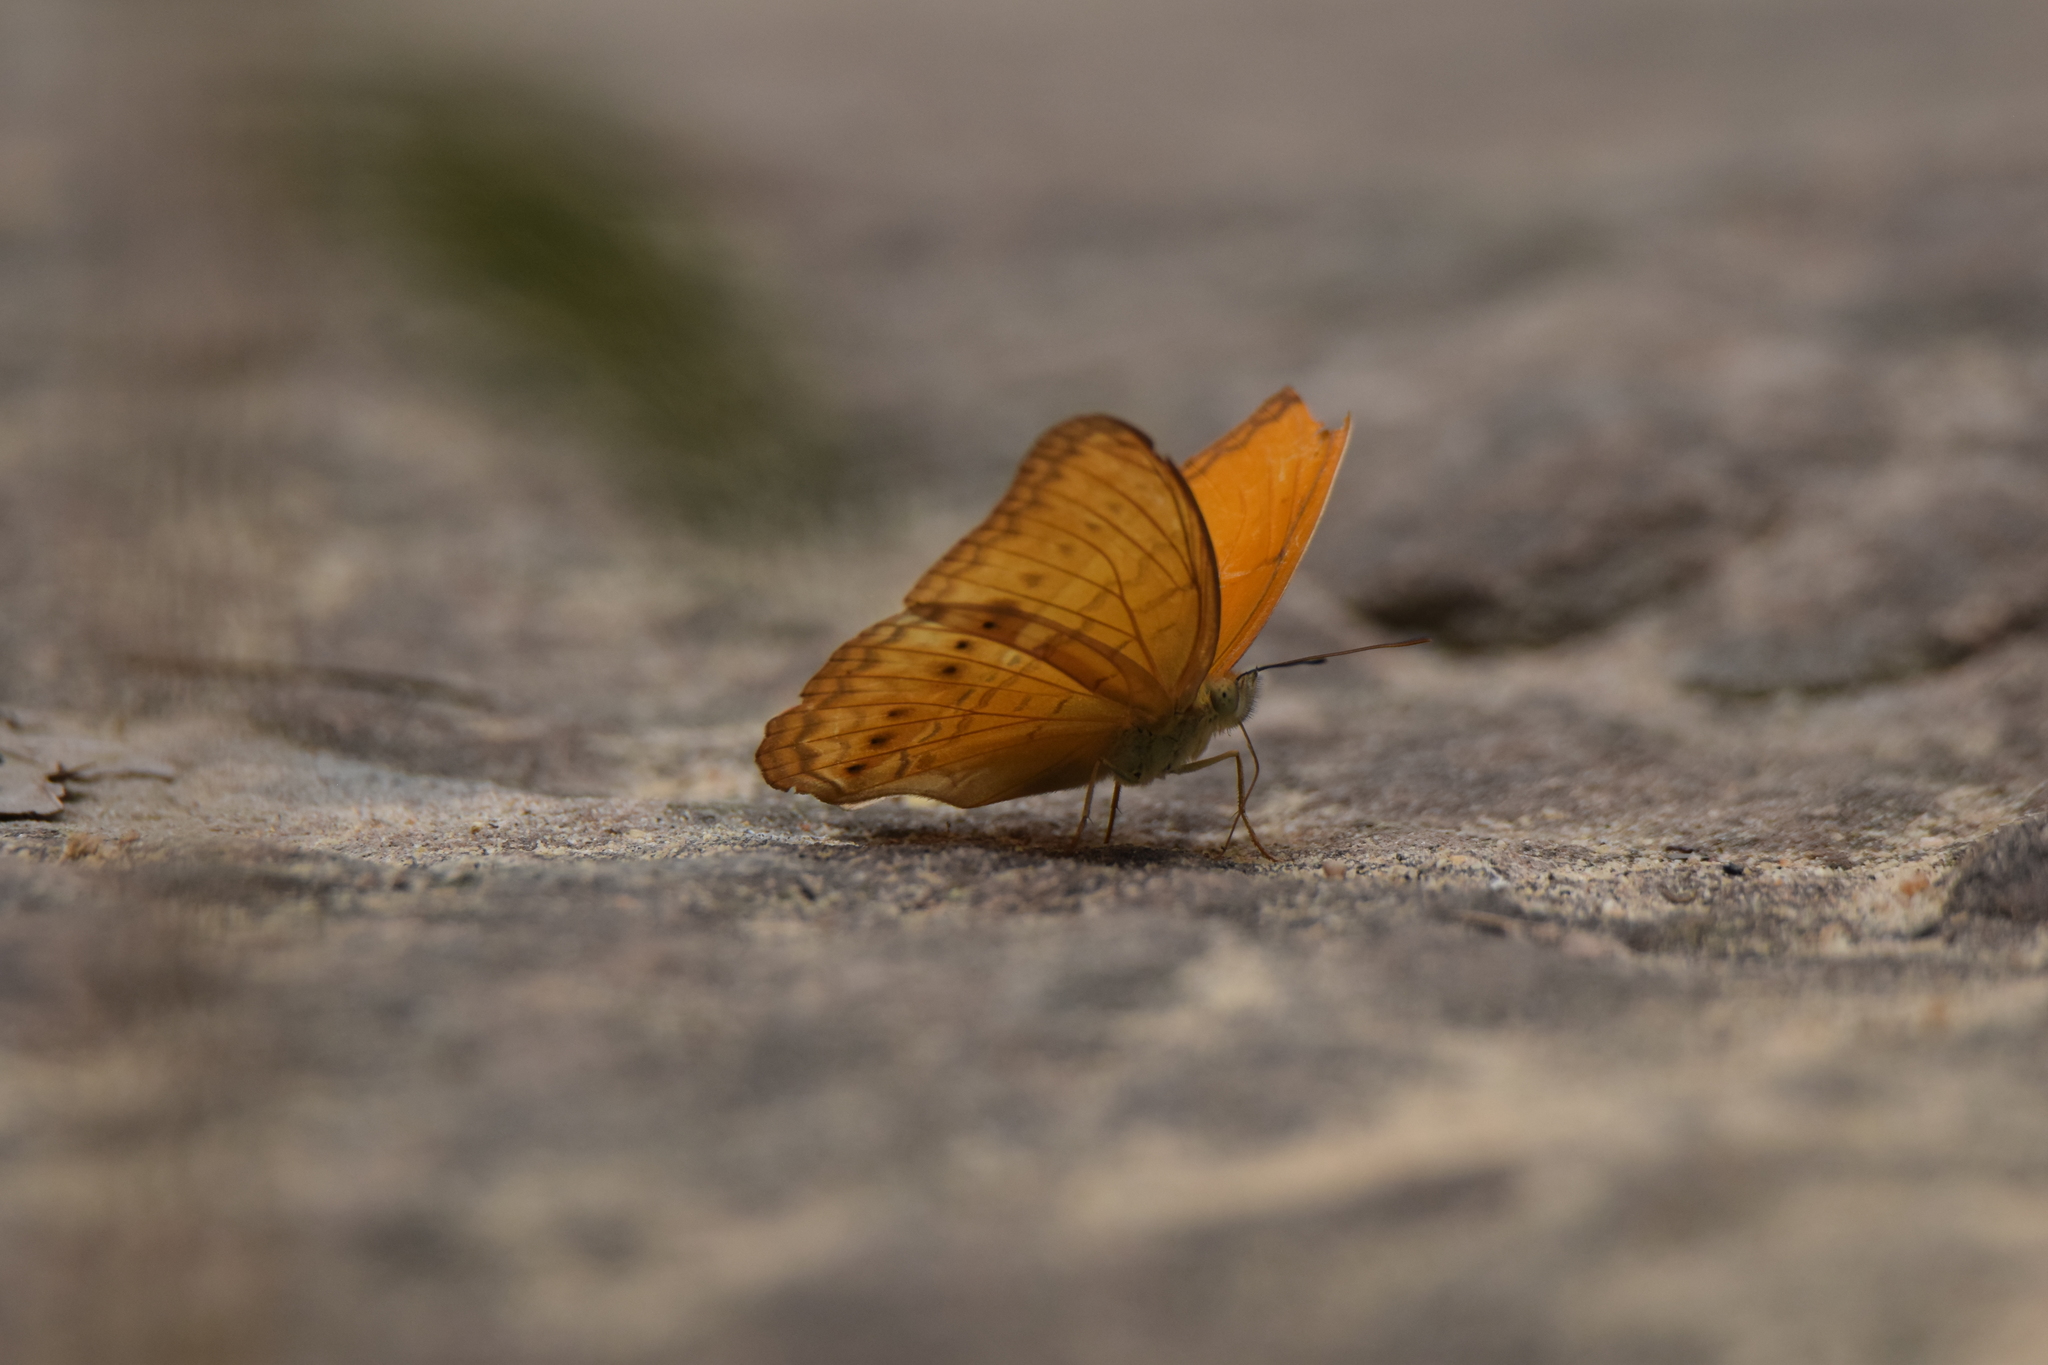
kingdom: Animalia
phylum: Arthropoda
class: Insecta
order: Lepidoptera
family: Nymphalidae
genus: Cirrochroa
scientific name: Cirrochroa tyche
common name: Common yeoman
